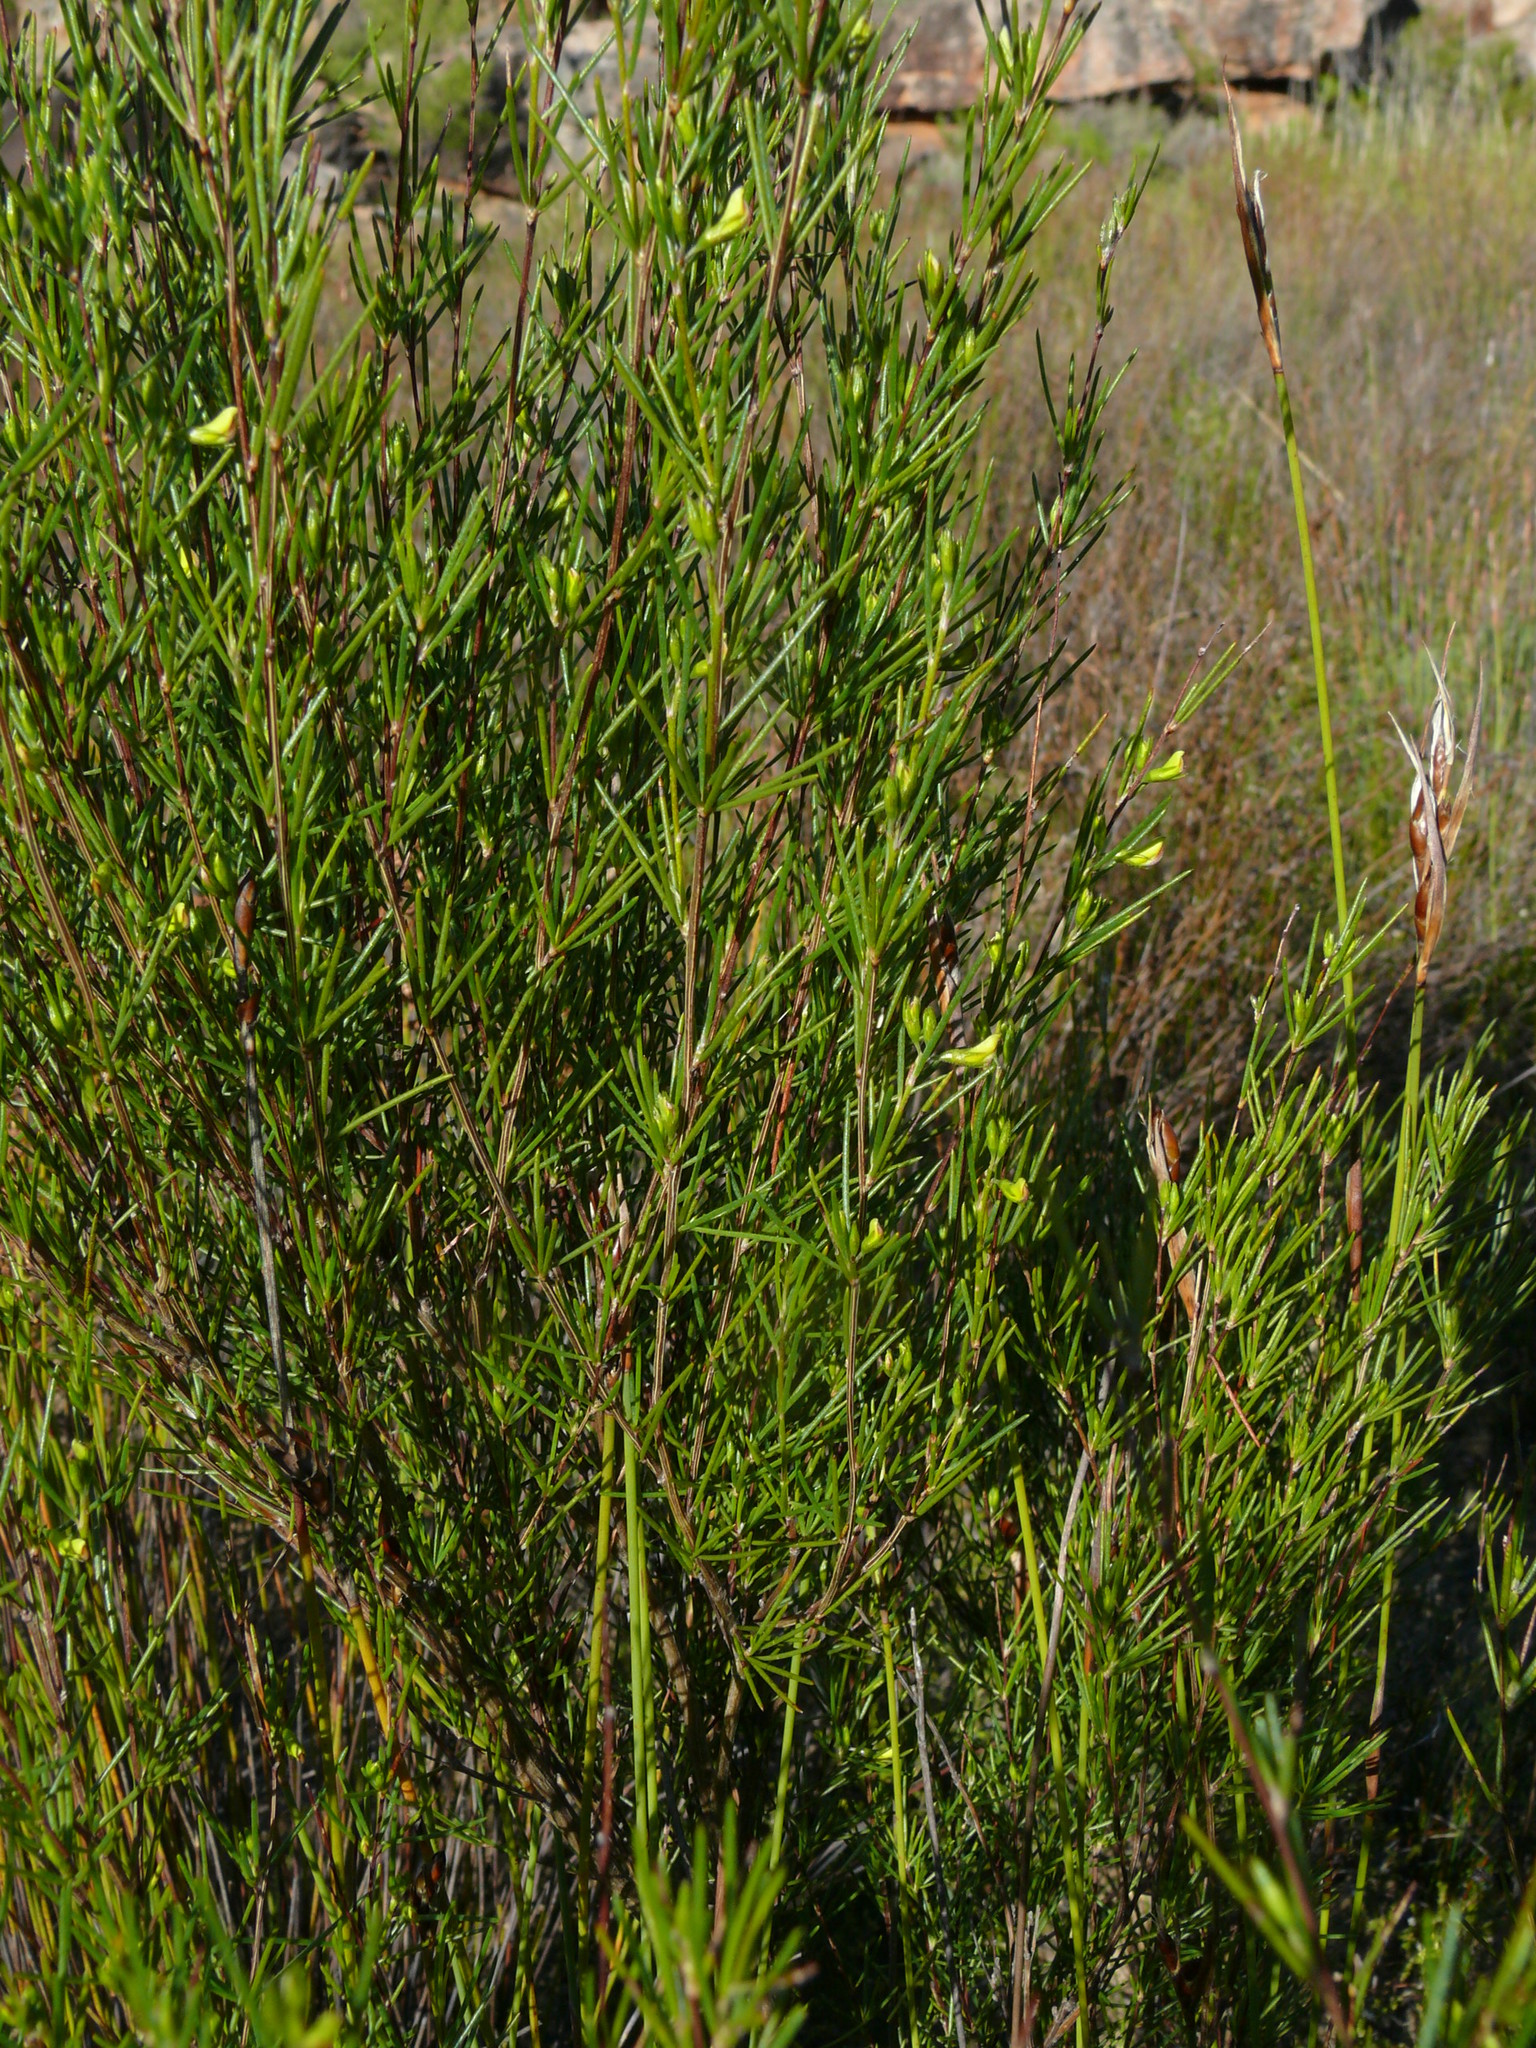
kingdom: Plantae
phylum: Tracheophyta
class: Magnoliopsida
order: Fabales
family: Fabaceae
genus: Aspalathus
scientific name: Aspalathus linearis
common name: Rooibos-tea
